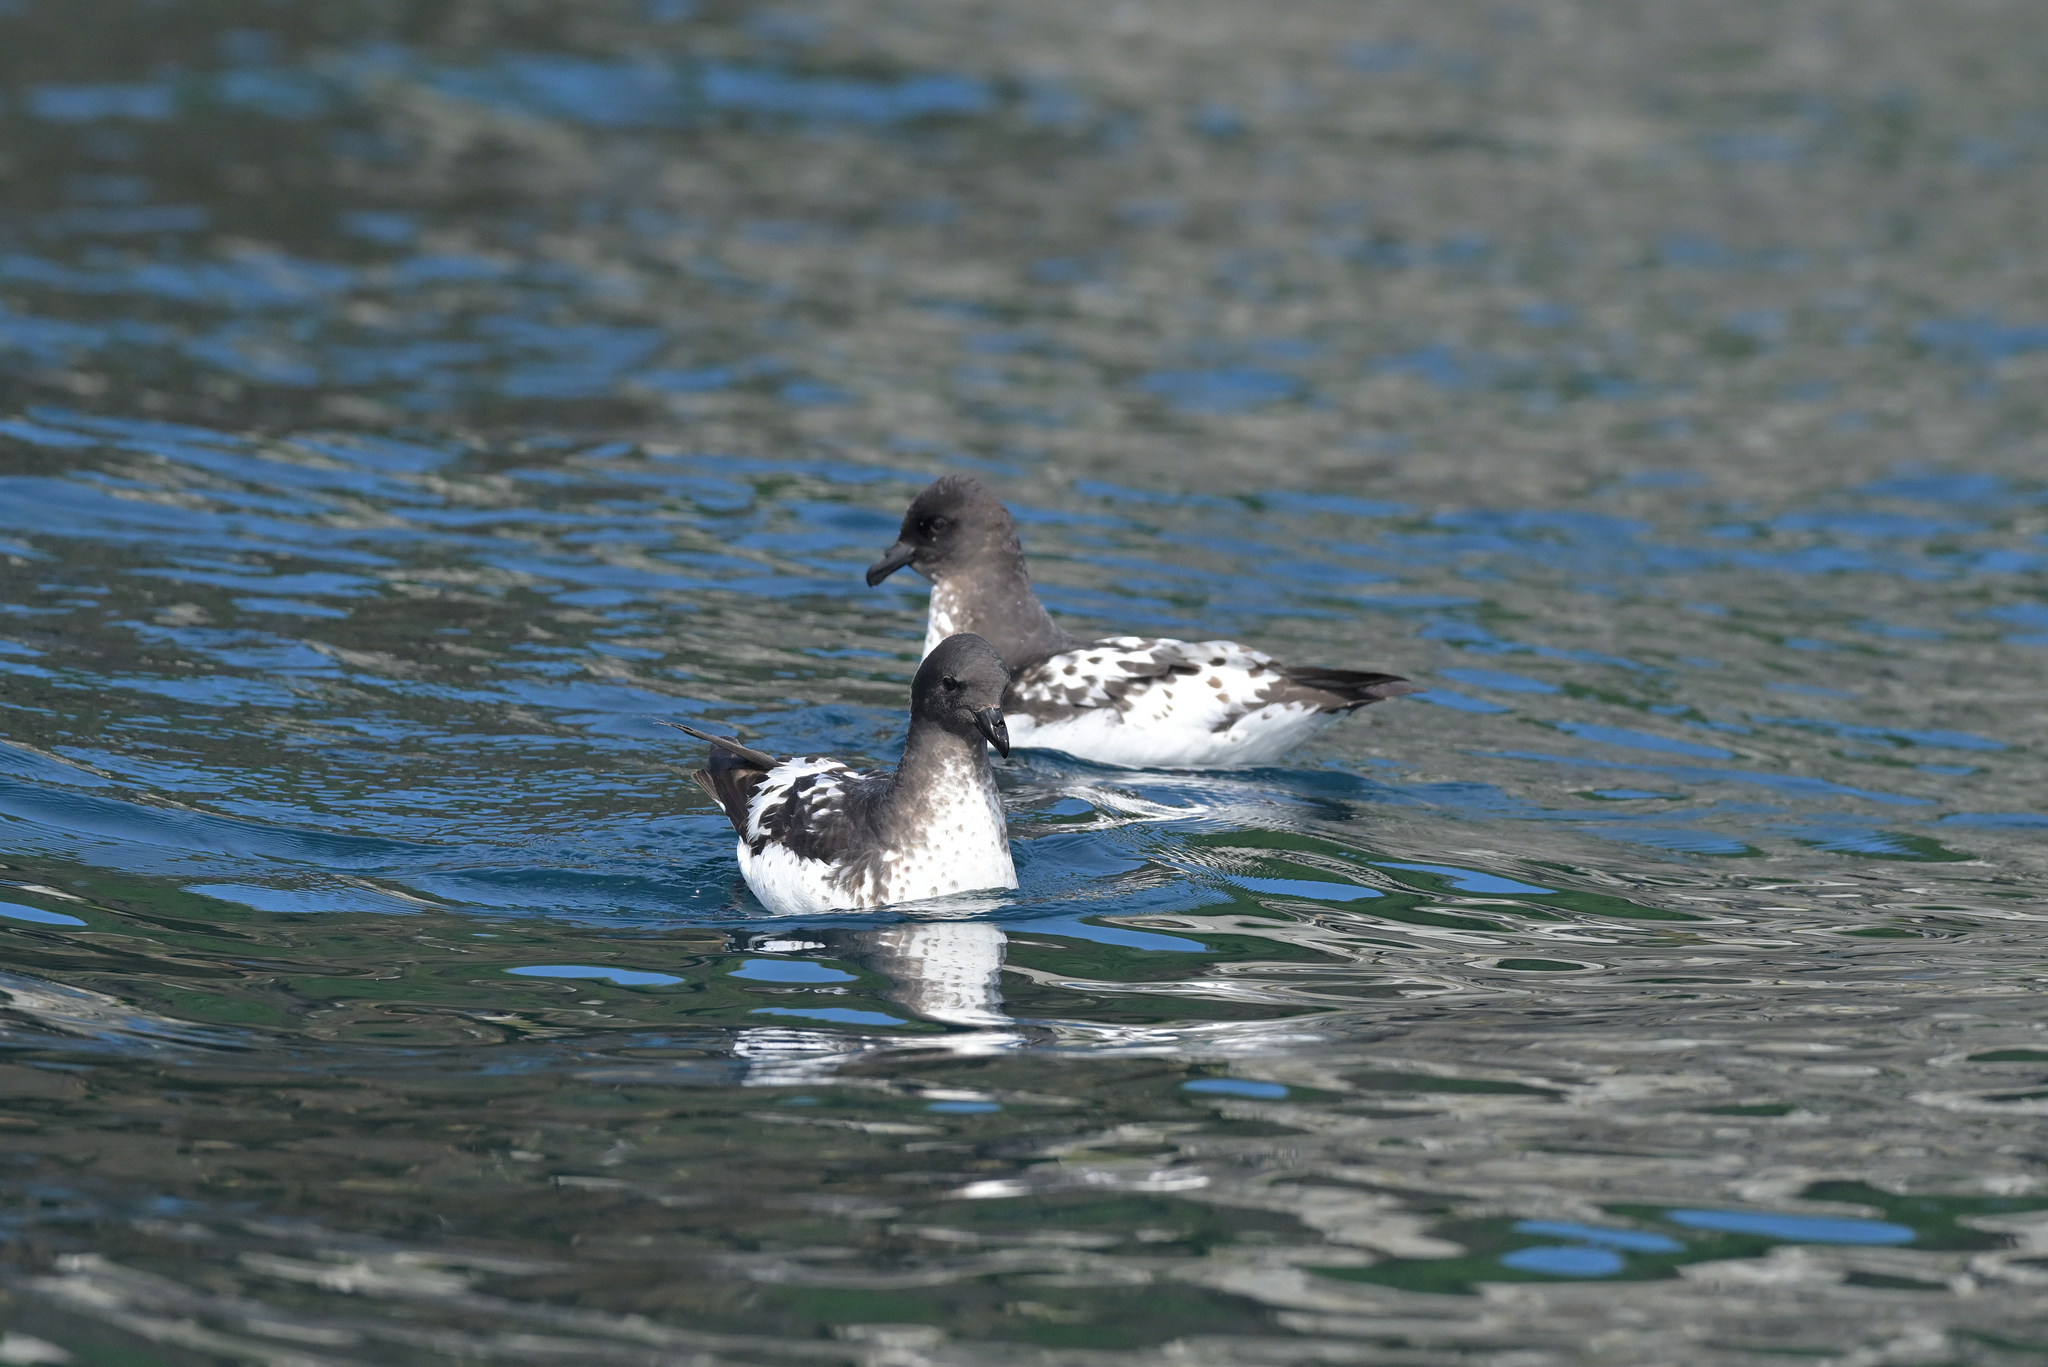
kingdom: Animalia
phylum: Chordata
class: Aves
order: Procellariiformes
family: Procellariidae
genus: Daption
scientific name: Daption capense
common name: Cape petrel
